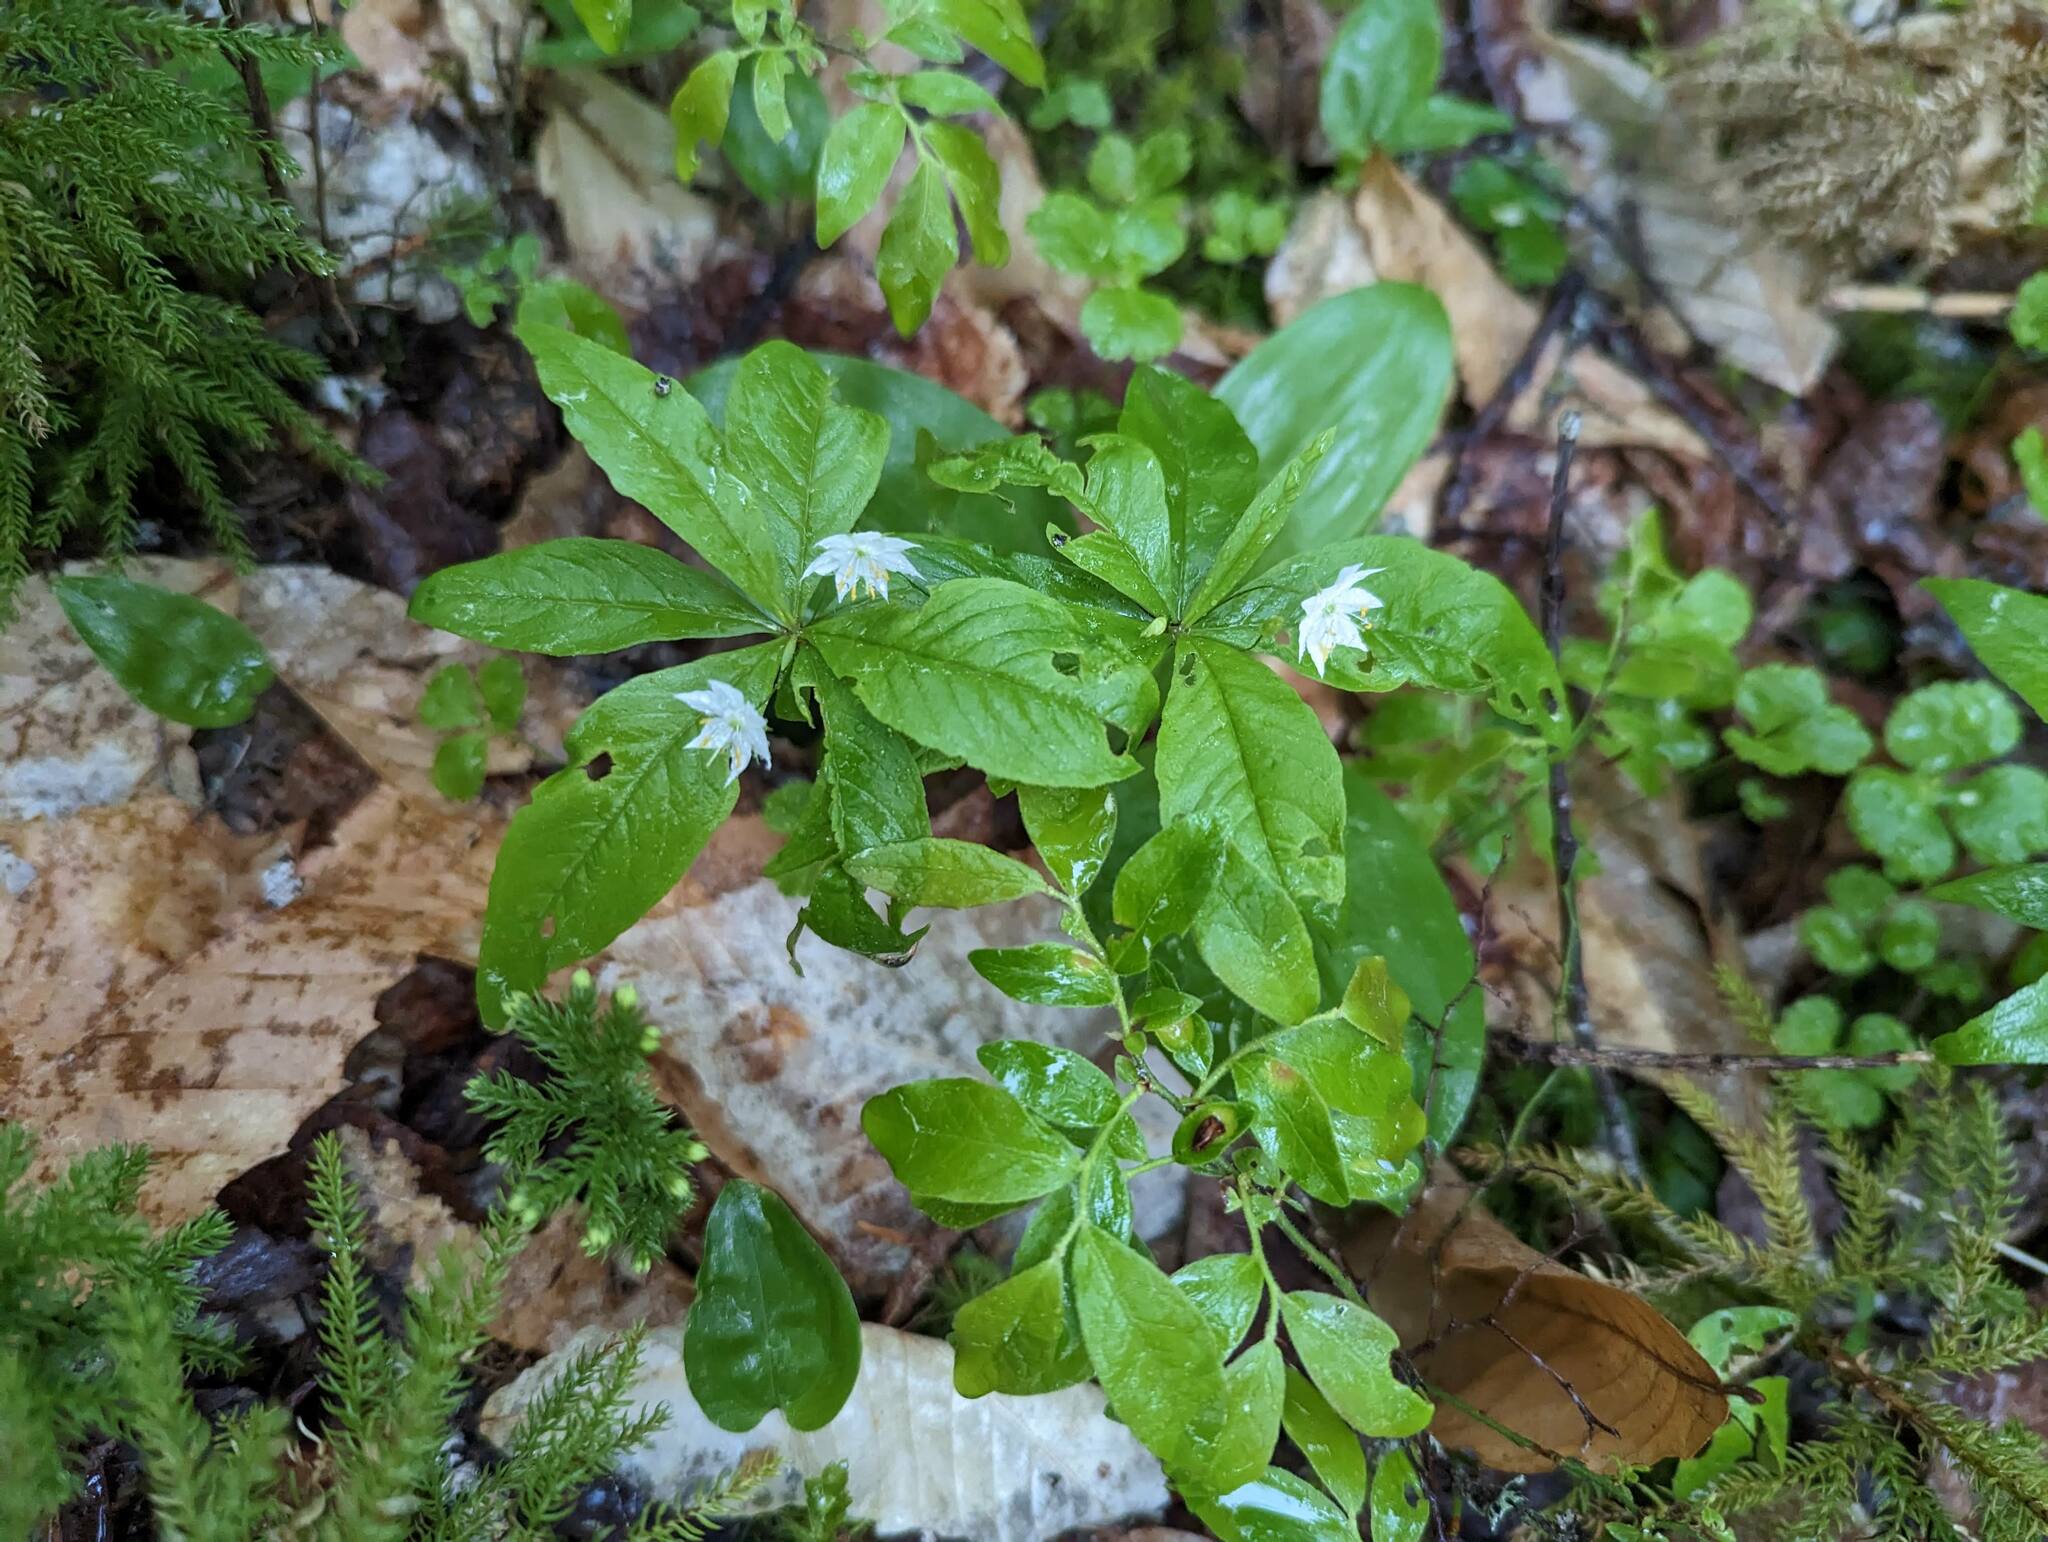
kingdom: Plantae
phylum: Tracheophyta
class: Magnoliopsida
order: Ericales
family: Primulaceae
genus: Lysimachia
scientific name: Lysimachia borealis
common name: American starflower
